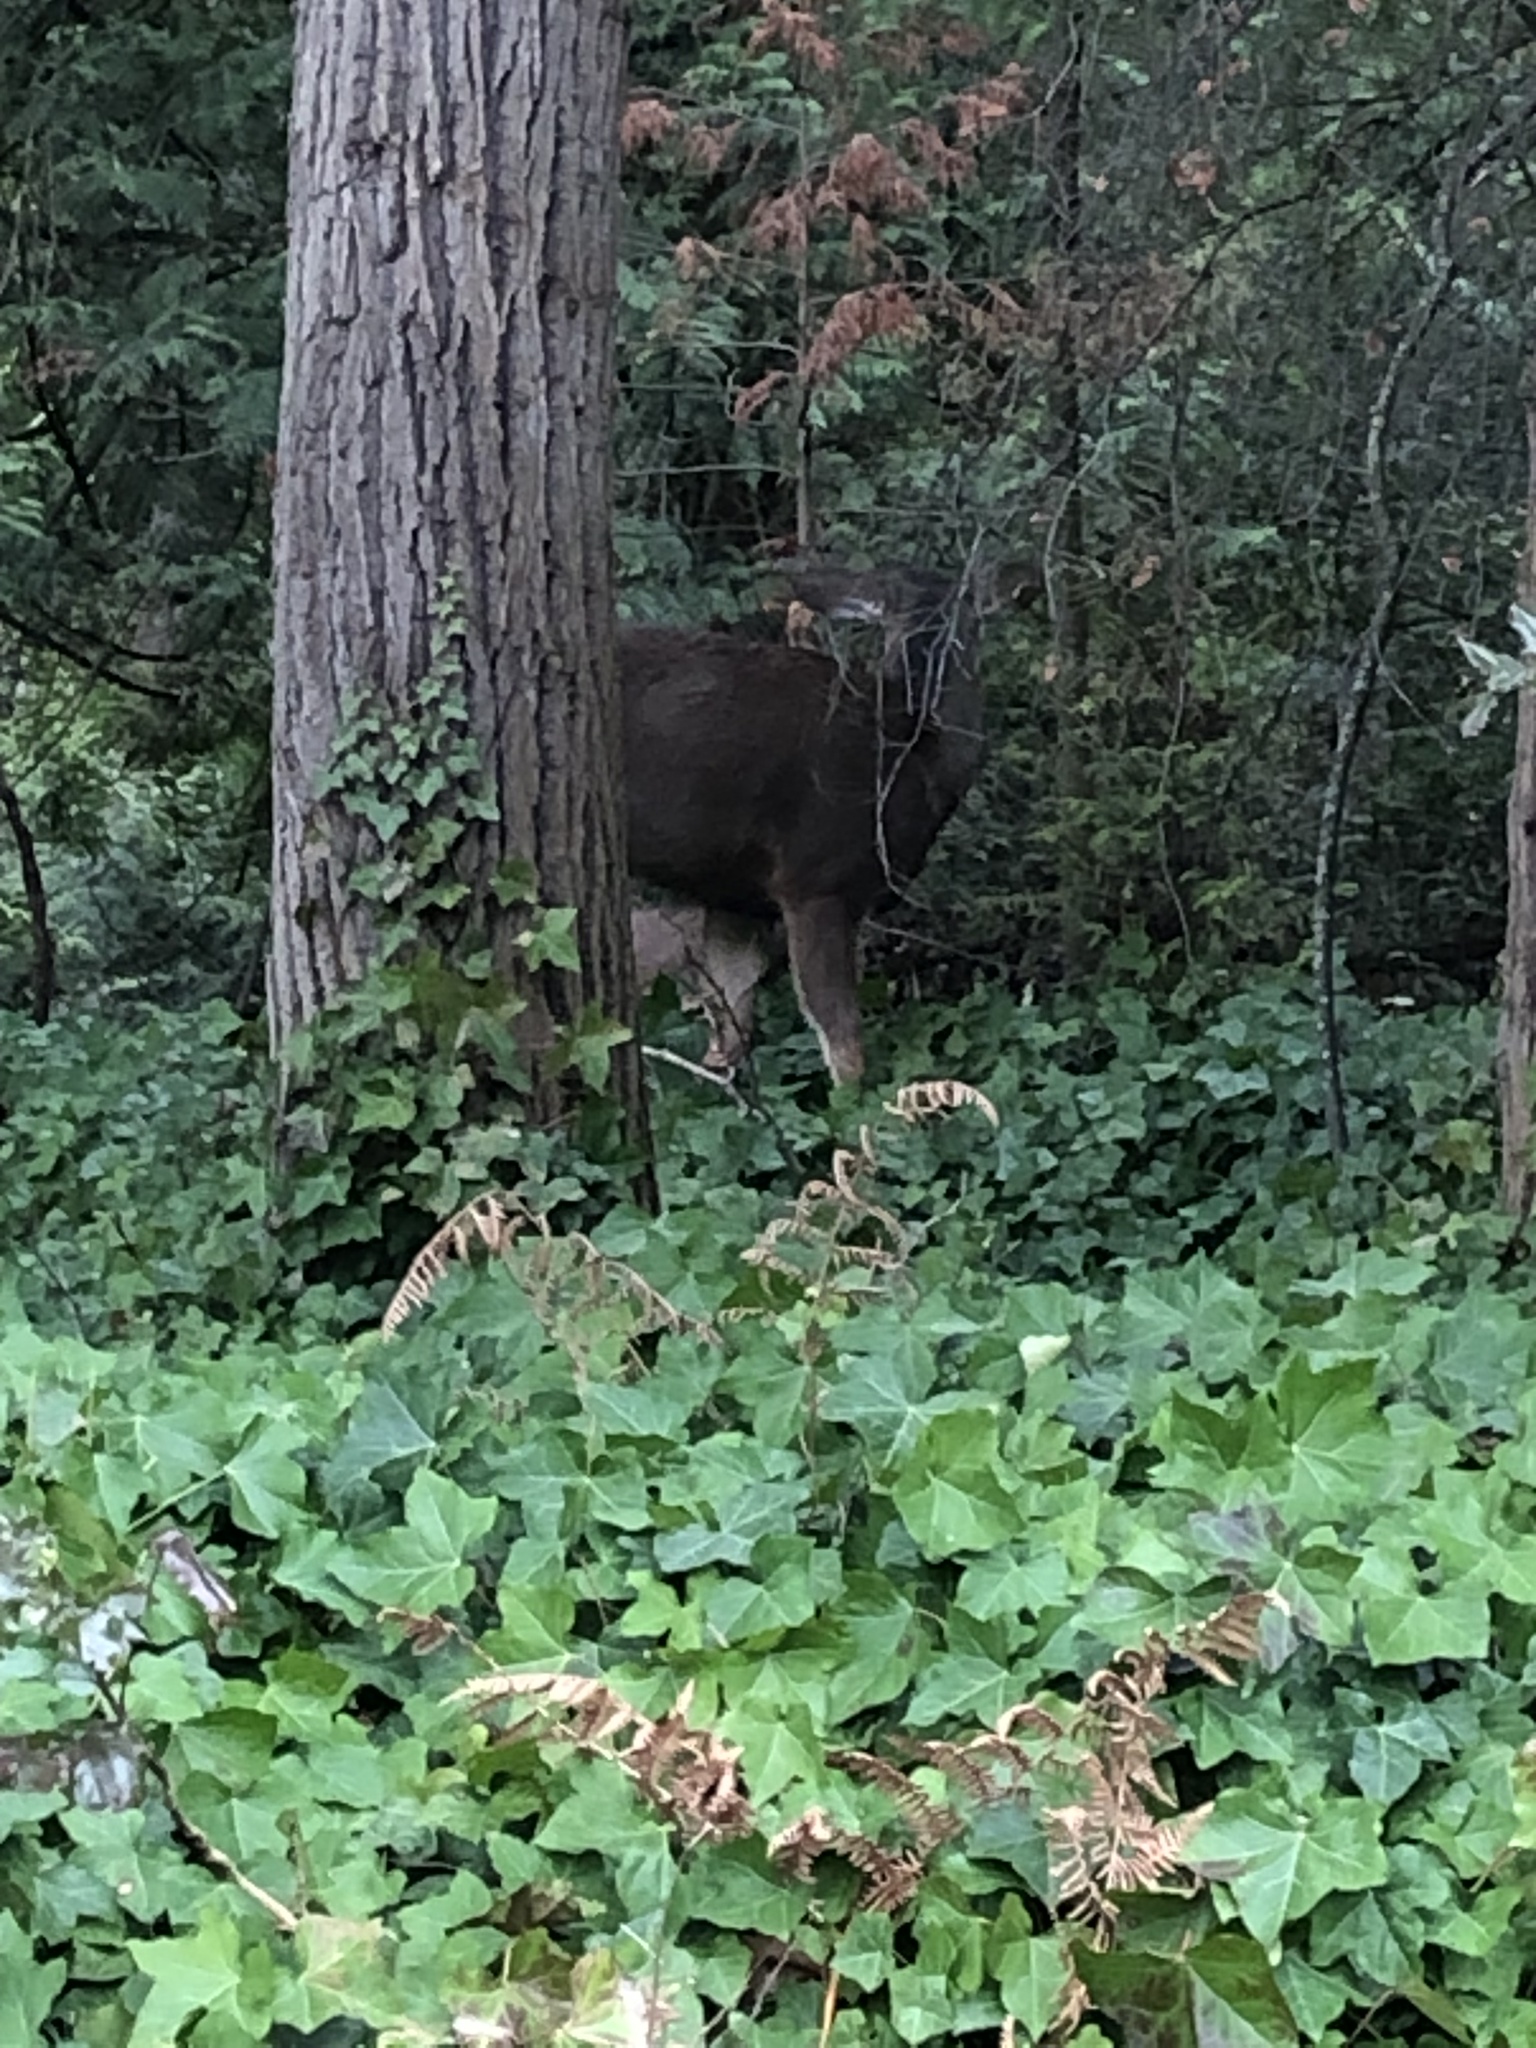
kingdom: Animalia
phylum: Chordata
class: Mammalia
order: Artiodactyla
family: Cervidae
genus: Odocoileus
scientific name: Odocoileus hemionus
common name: Mule deer
